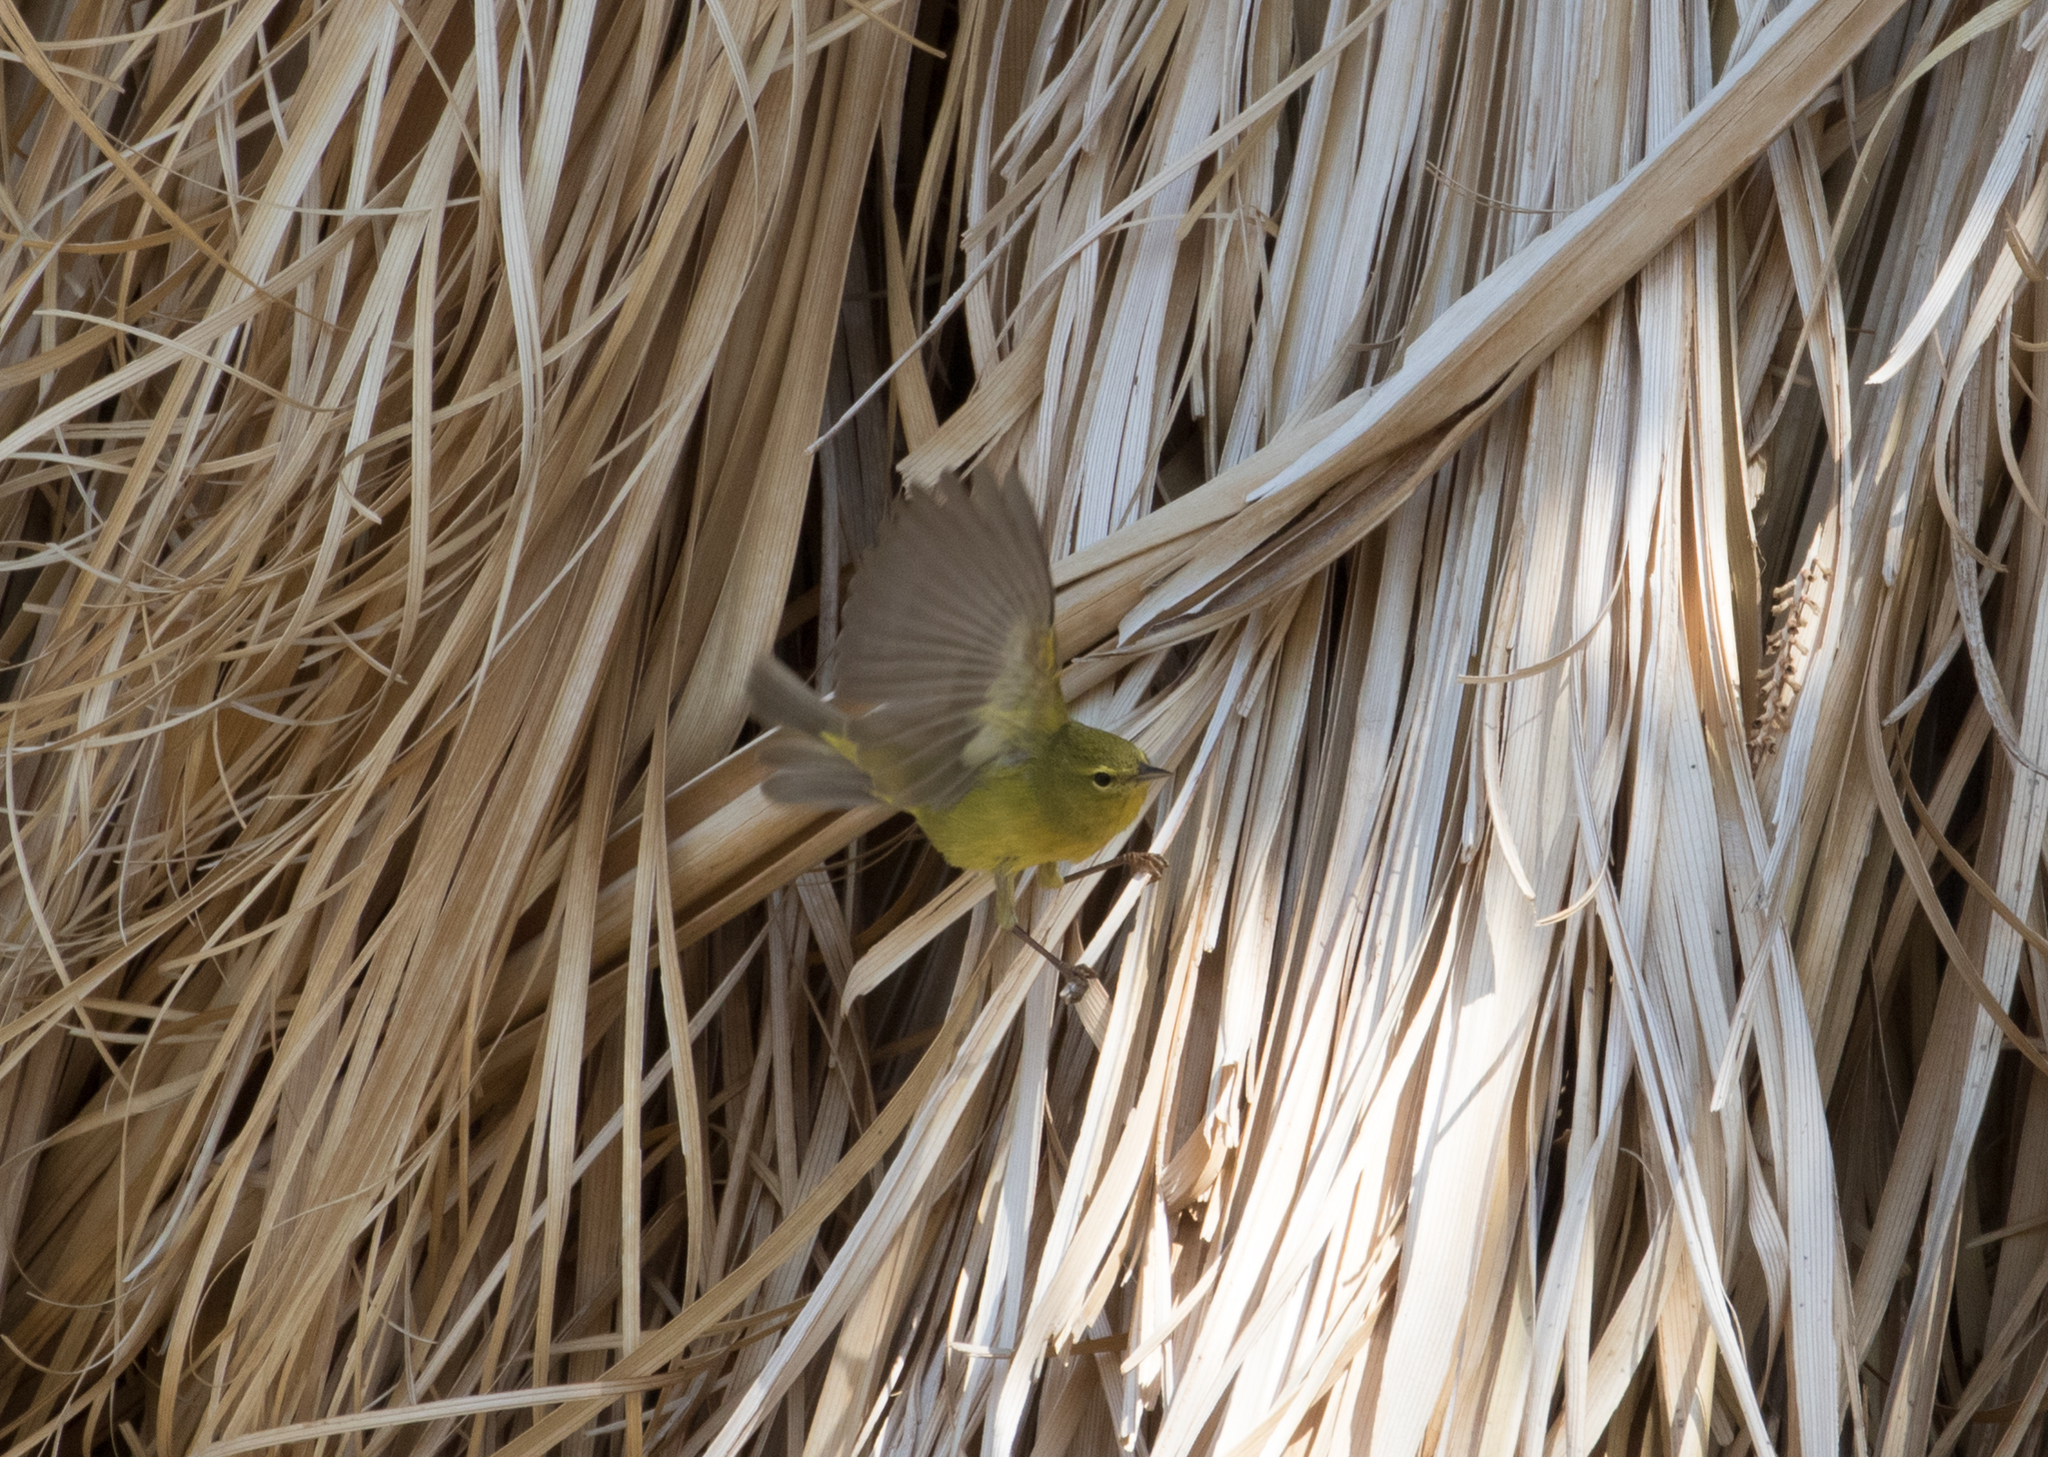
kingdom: Animalia
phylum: Chordata
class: Aves
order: Passeriformes
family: Parulidae
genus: Leiothlypis
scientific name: Leiothlypis celata
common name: Orange-crowned warbler
